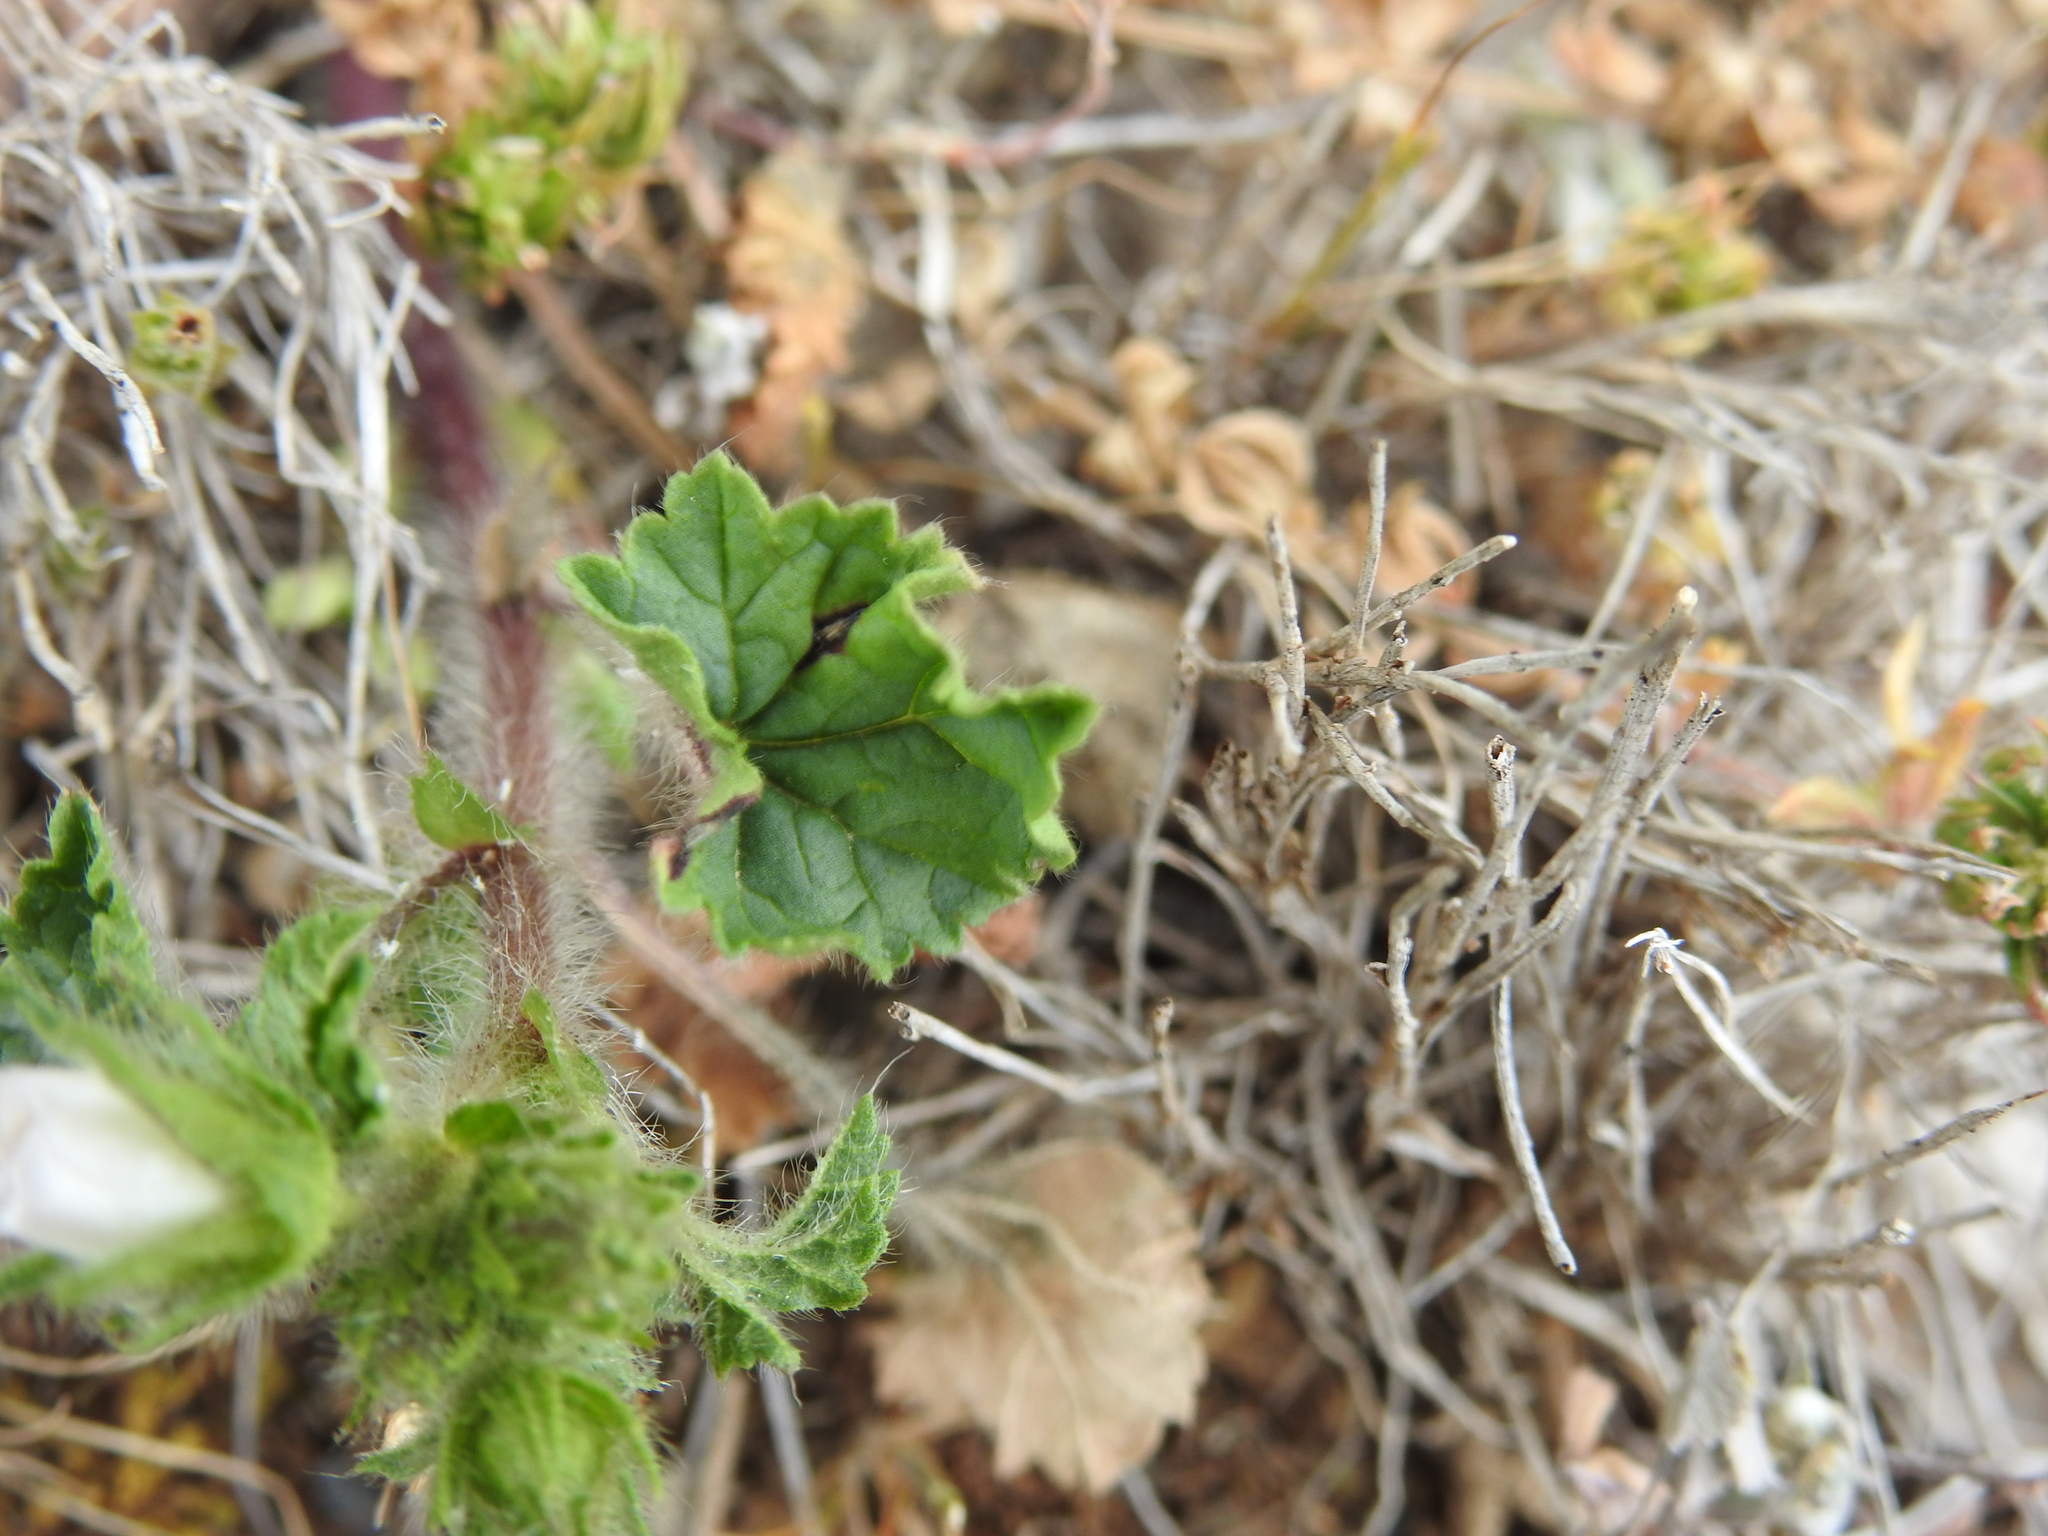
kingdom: Plantae
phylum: Tracheophyta
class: Magnoliopsida
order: Malvales
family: Malvaceae
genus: Althaea
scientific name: Althaea hirsuta
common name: Rough marsh-mallow
